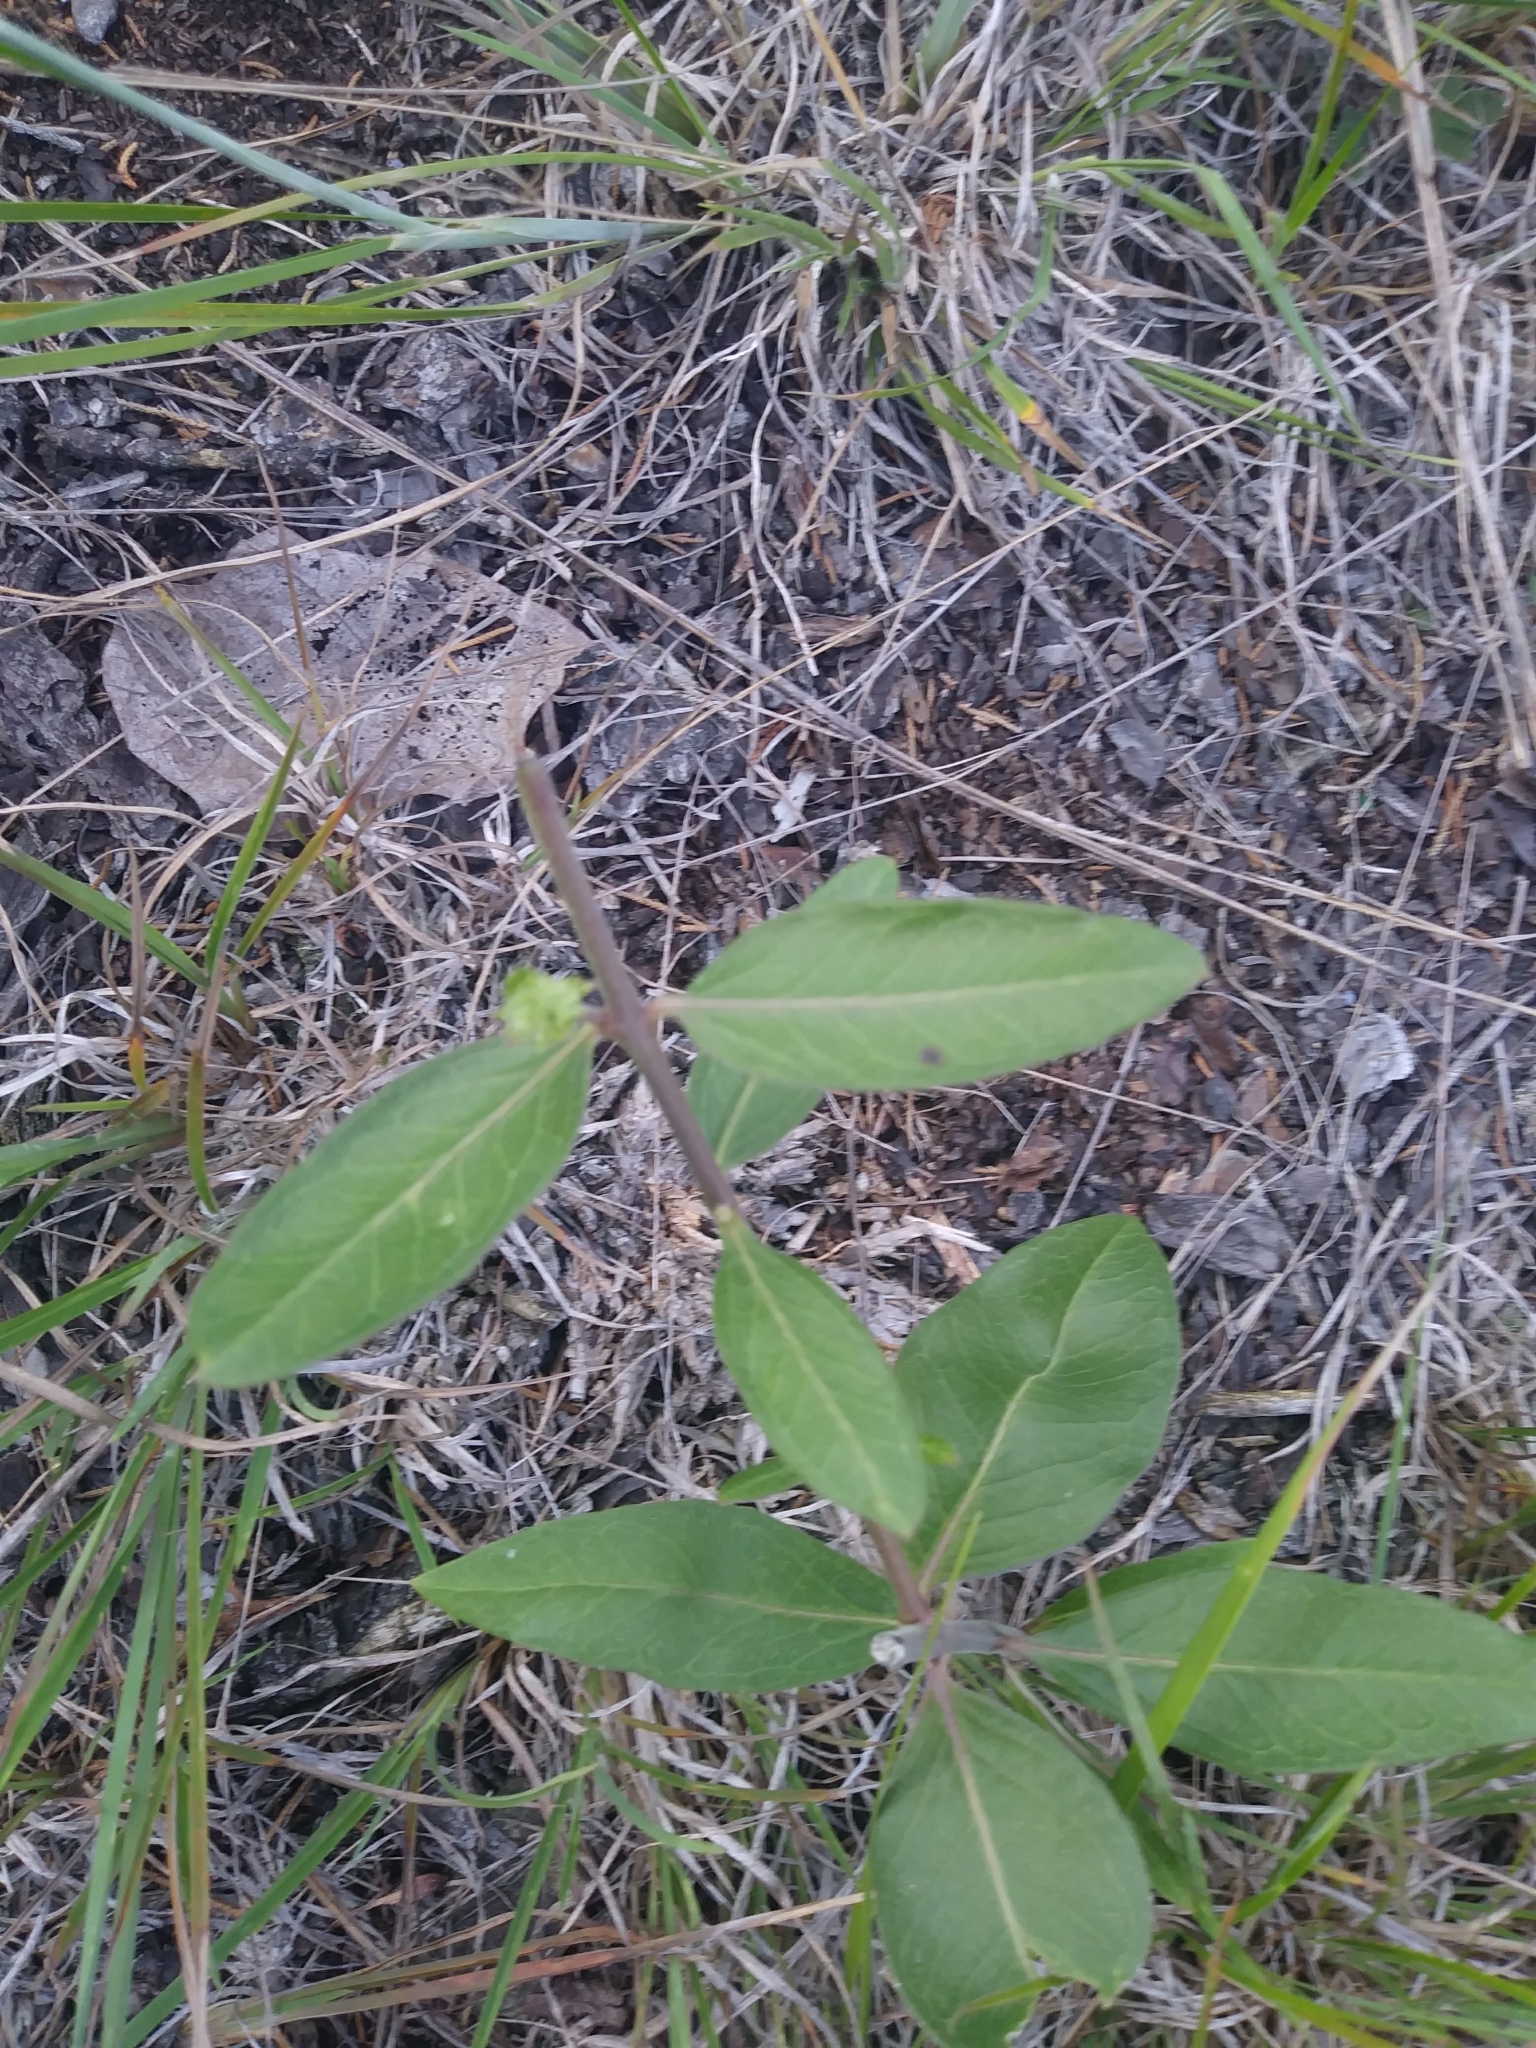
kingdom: Plantae
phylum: Tracheophyta
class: Magnoliopsida
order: Gentianales
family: Apocynaceae
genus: Asclepias
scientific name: Asclepias viridiflora
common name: Green comet milkweed
